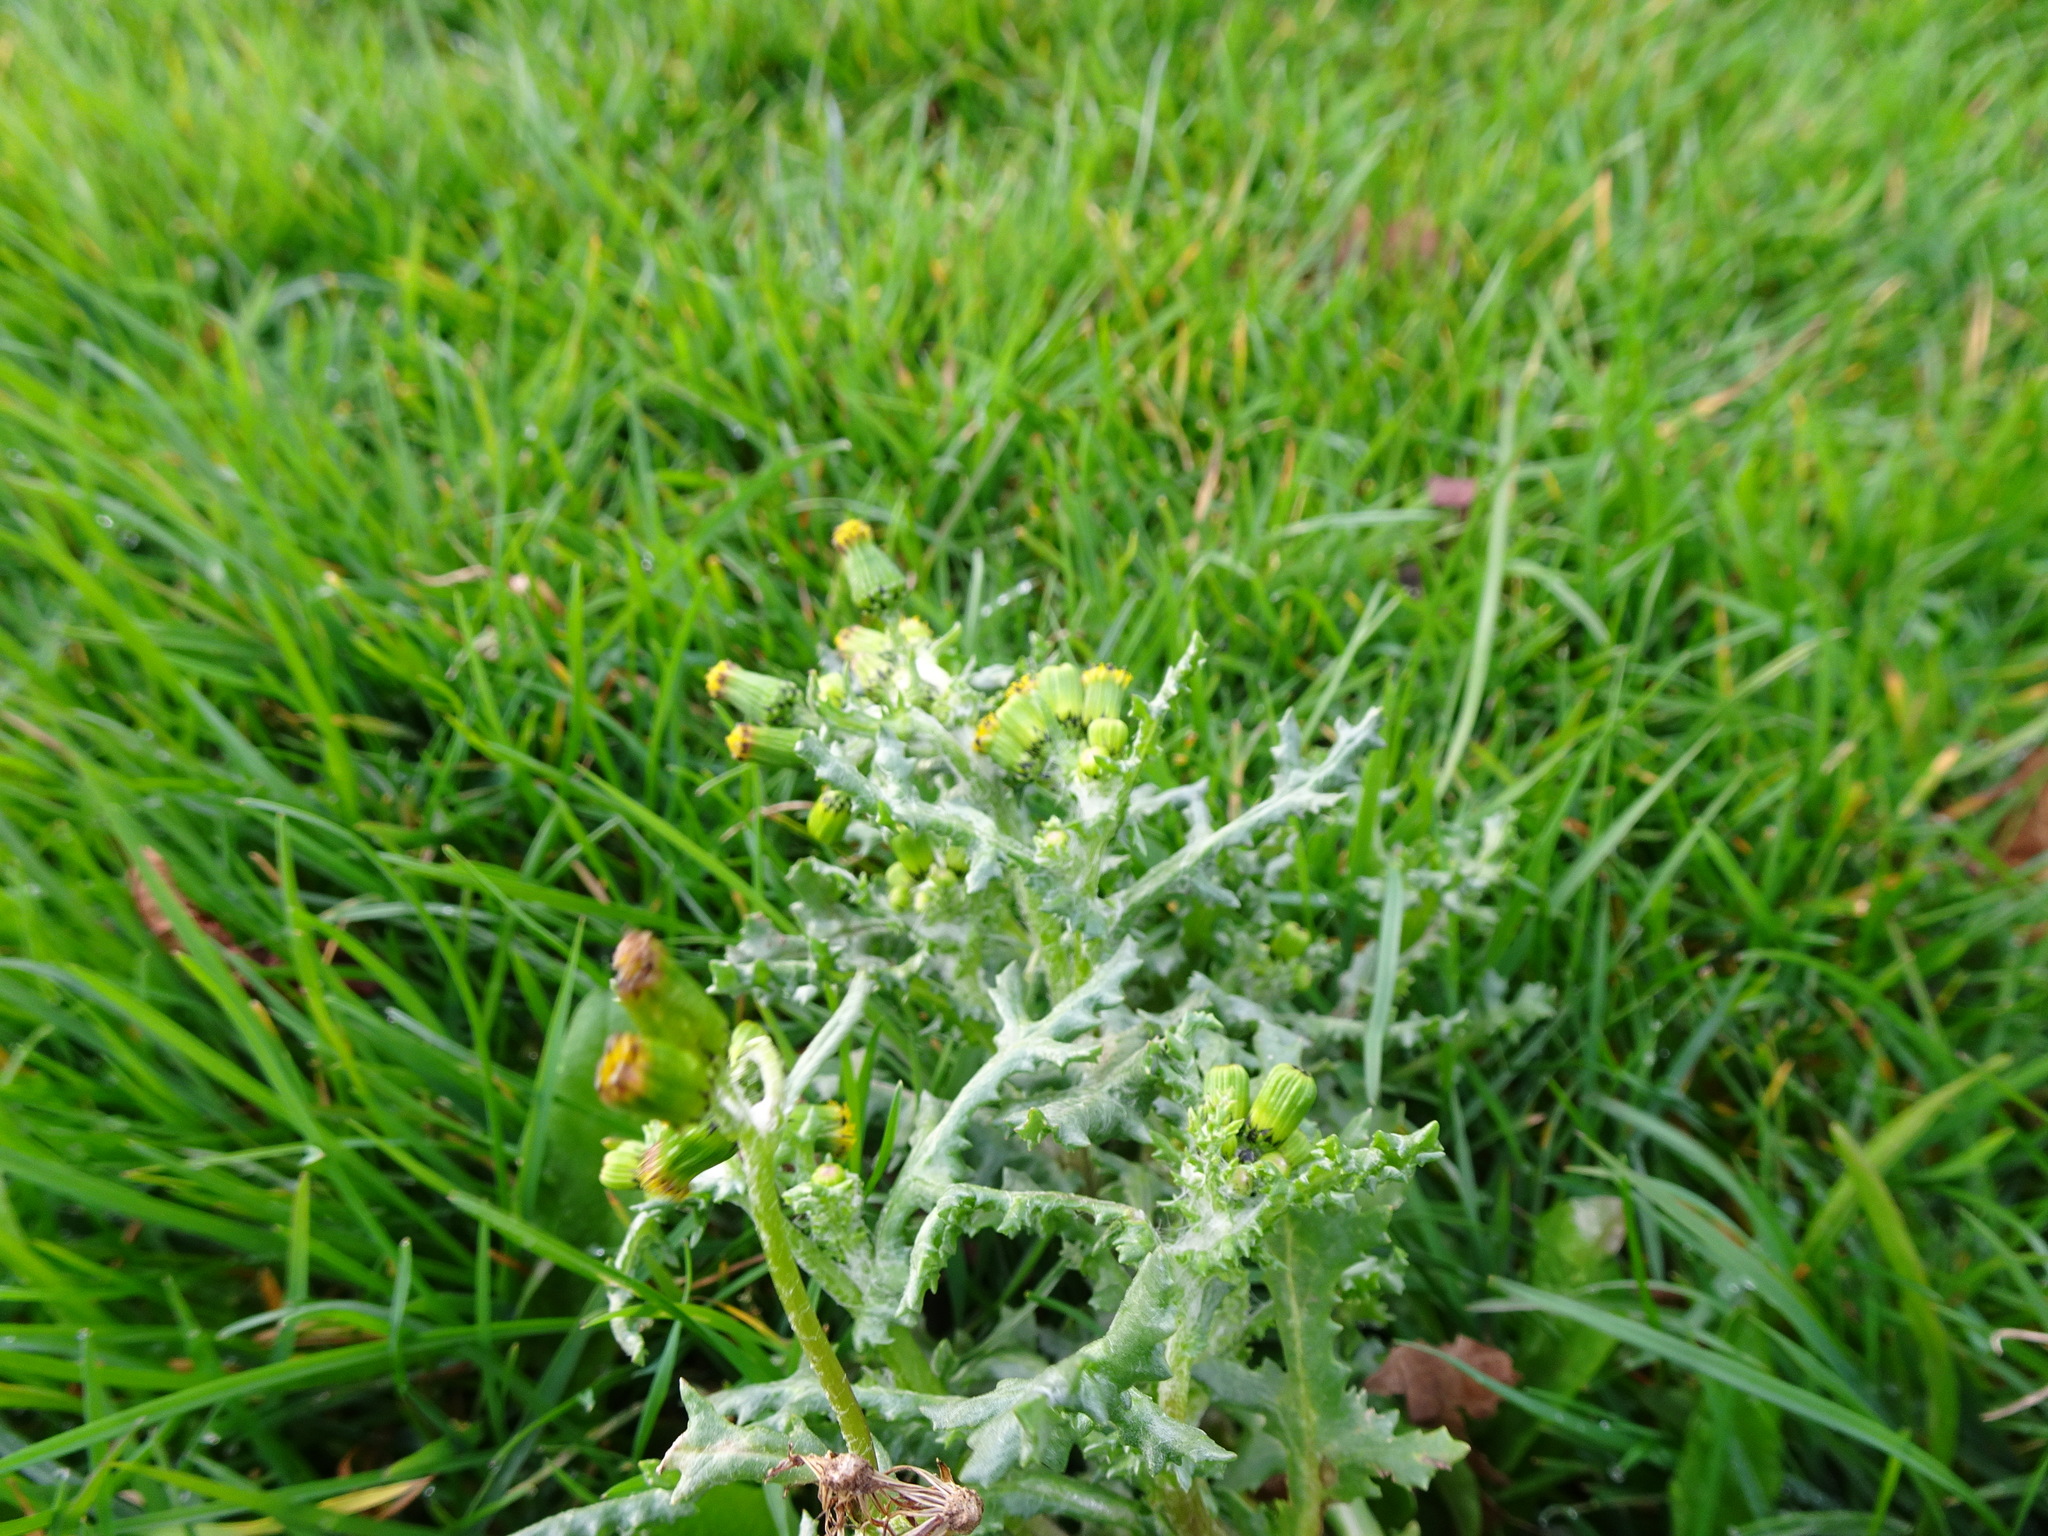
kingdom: Plantae
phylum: Tracheophyta
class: Magnoliopsida
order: Asterales
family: Asteraceae
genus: Senecio
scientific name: Senecio vulgaris
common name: Old-man-in-the-spring
